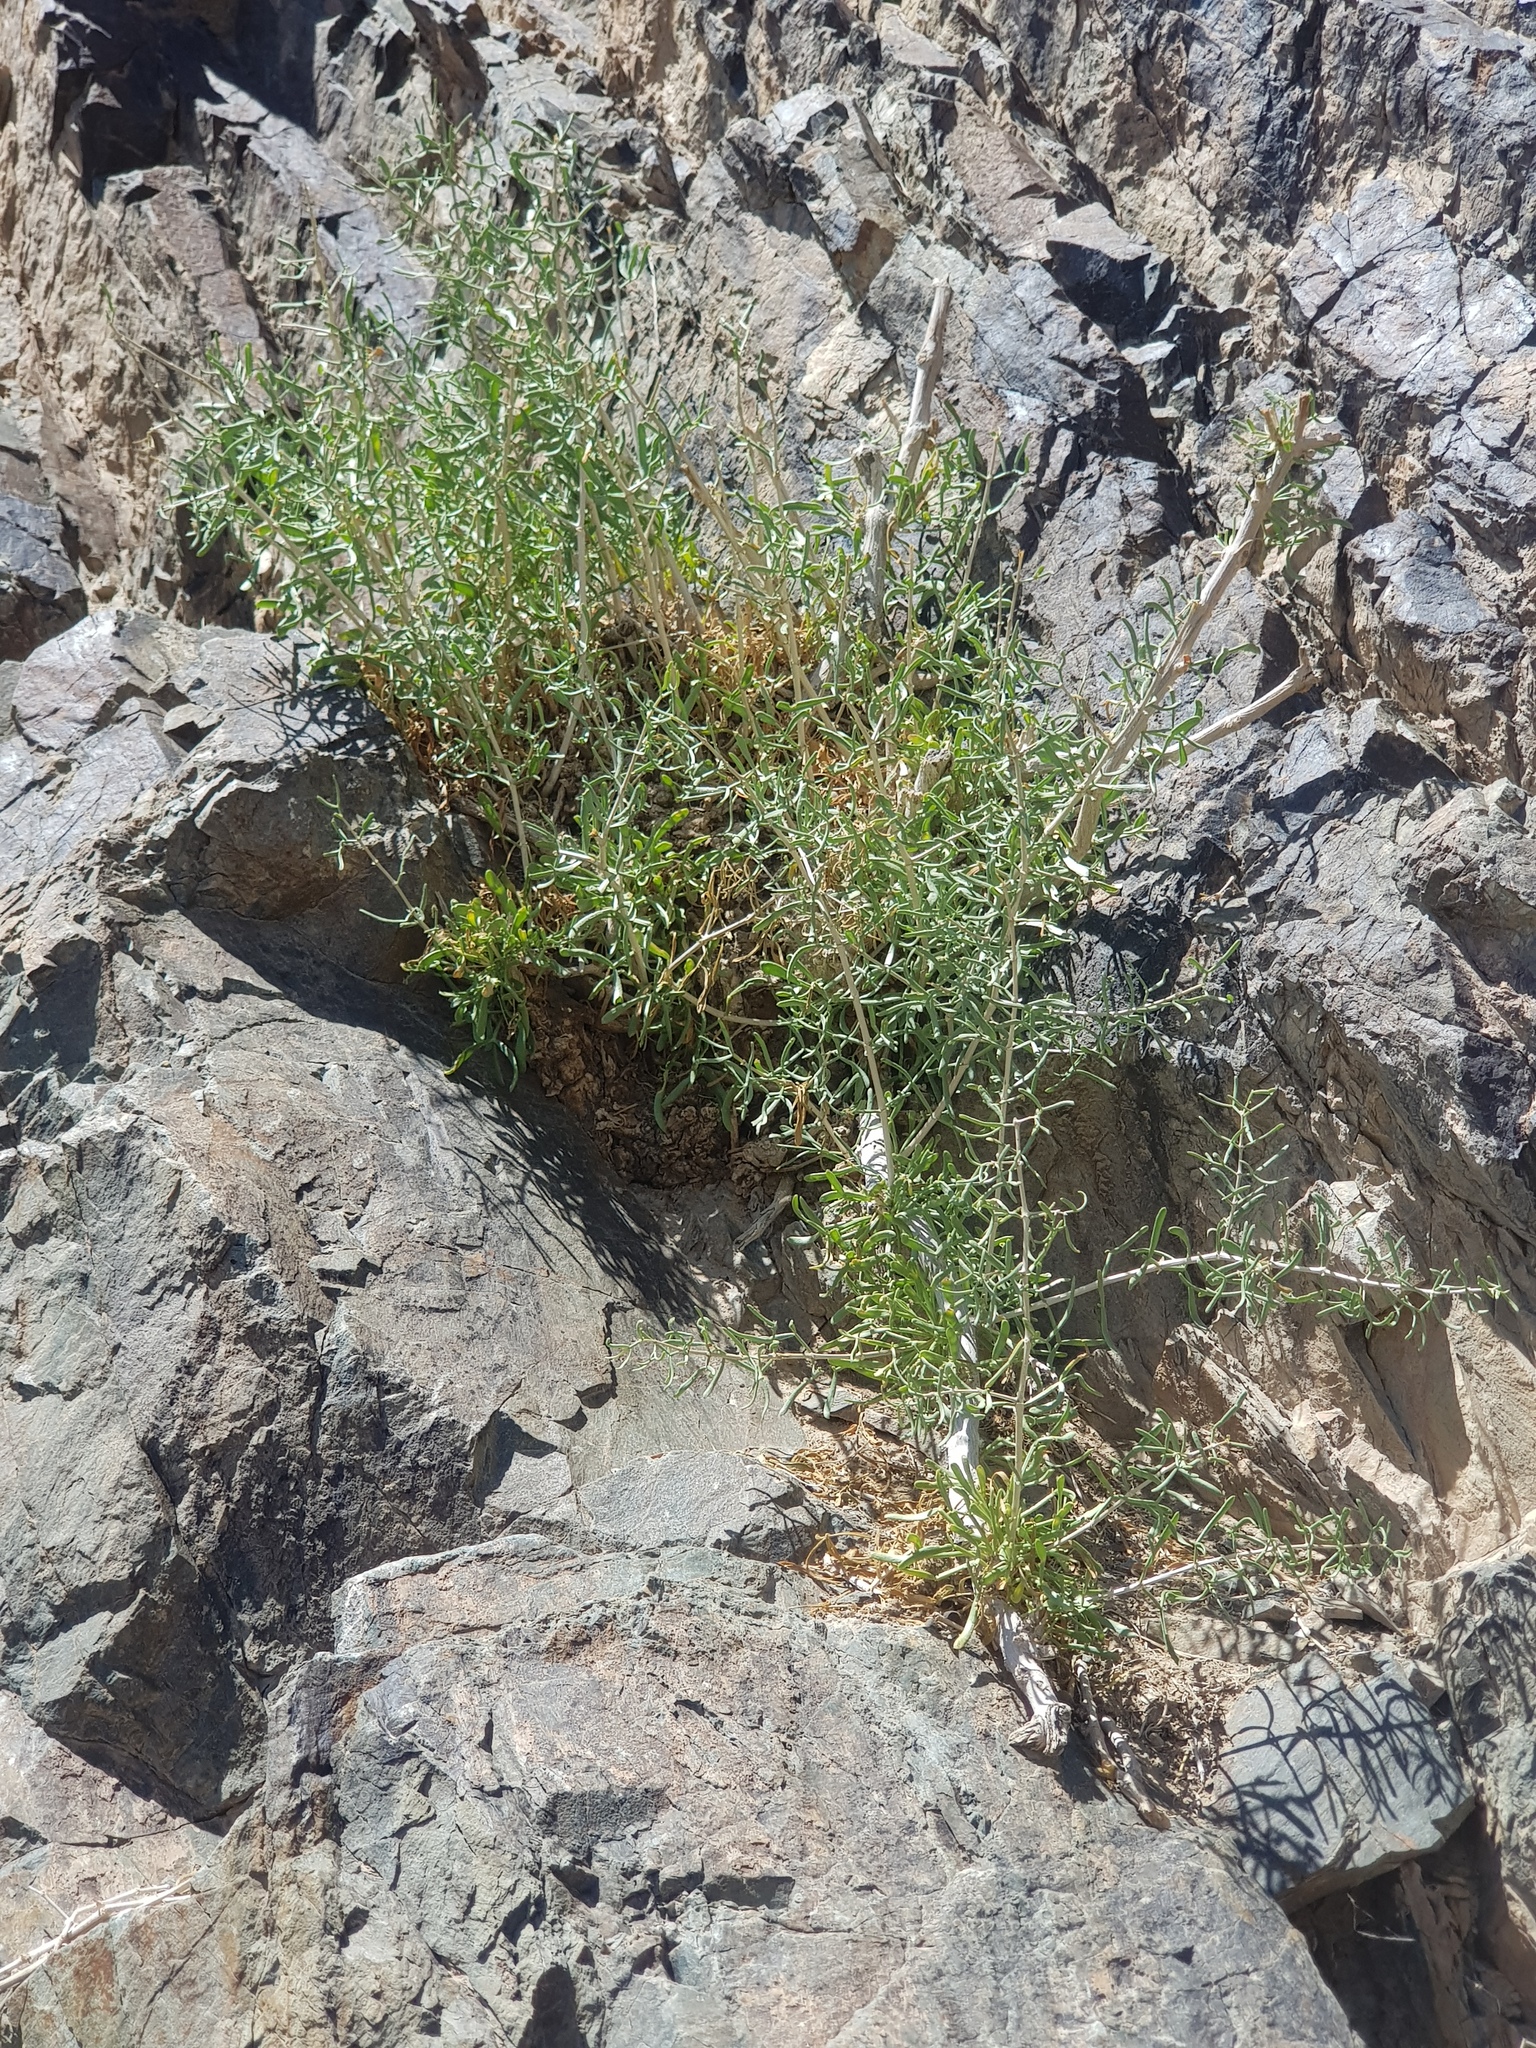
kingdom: Plantae
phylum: Tracheophyta
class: Magnoliopsida
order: Zygophyllales
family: Zygophyllaceae
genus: Zygophyllum
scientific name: Zygophyllum xanthoxylum
